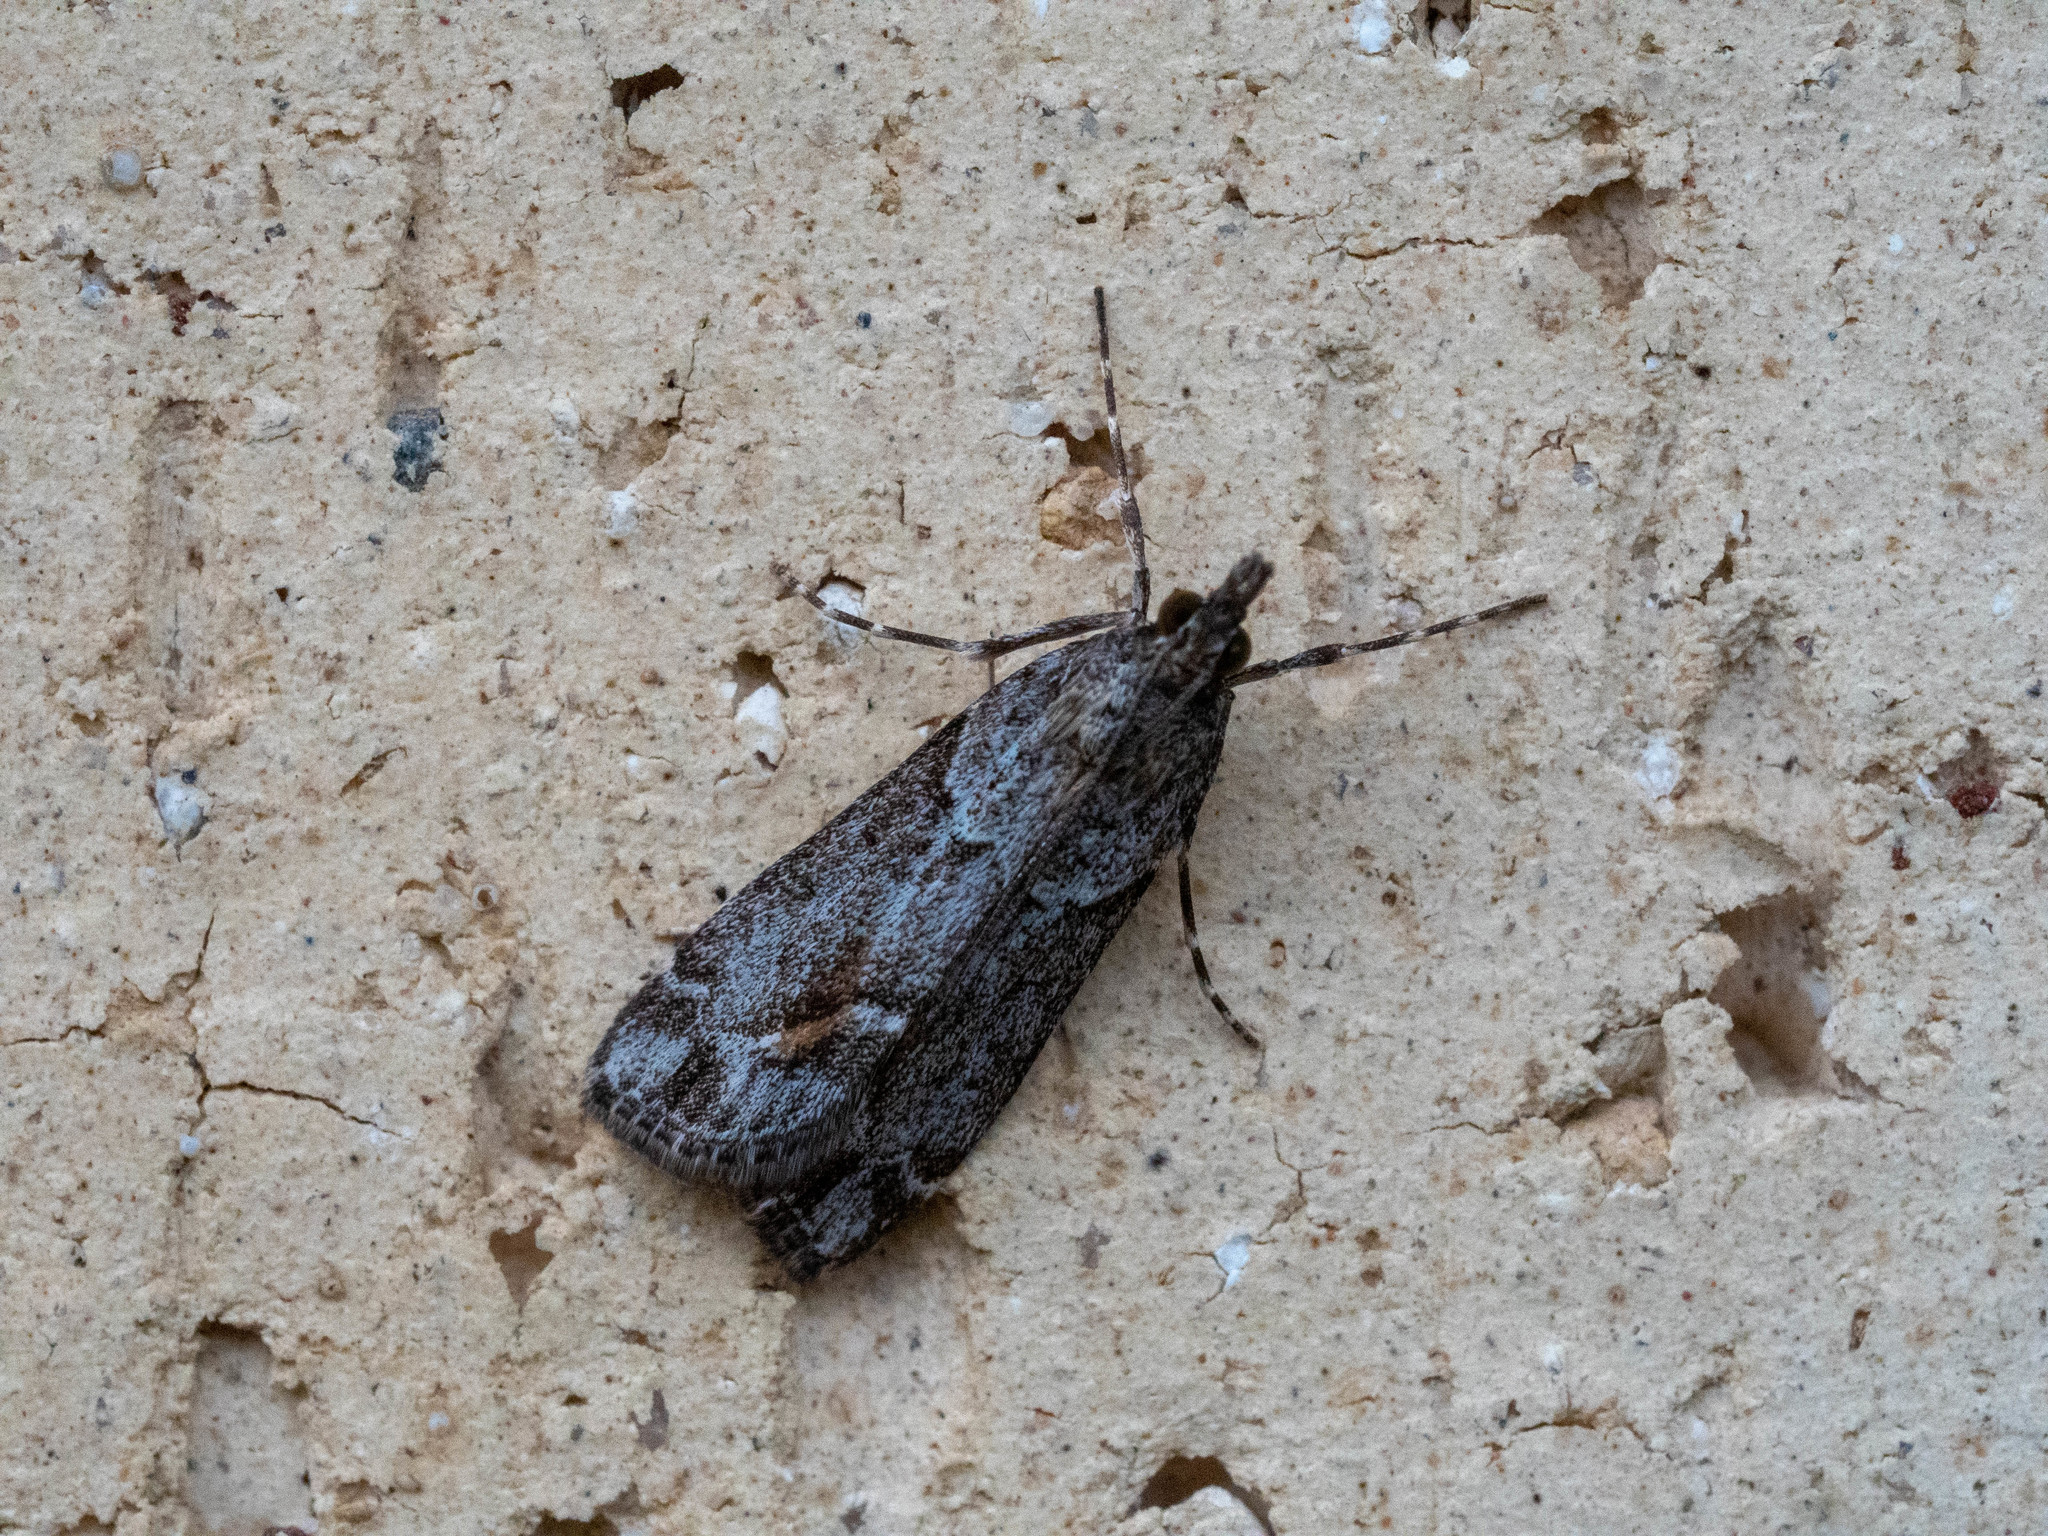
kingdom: Animalia
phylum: Arthropoda
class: Insecta
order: Lepidoptera
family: Crambidae
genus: Eudonia
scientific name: Eudonia submarginalis
